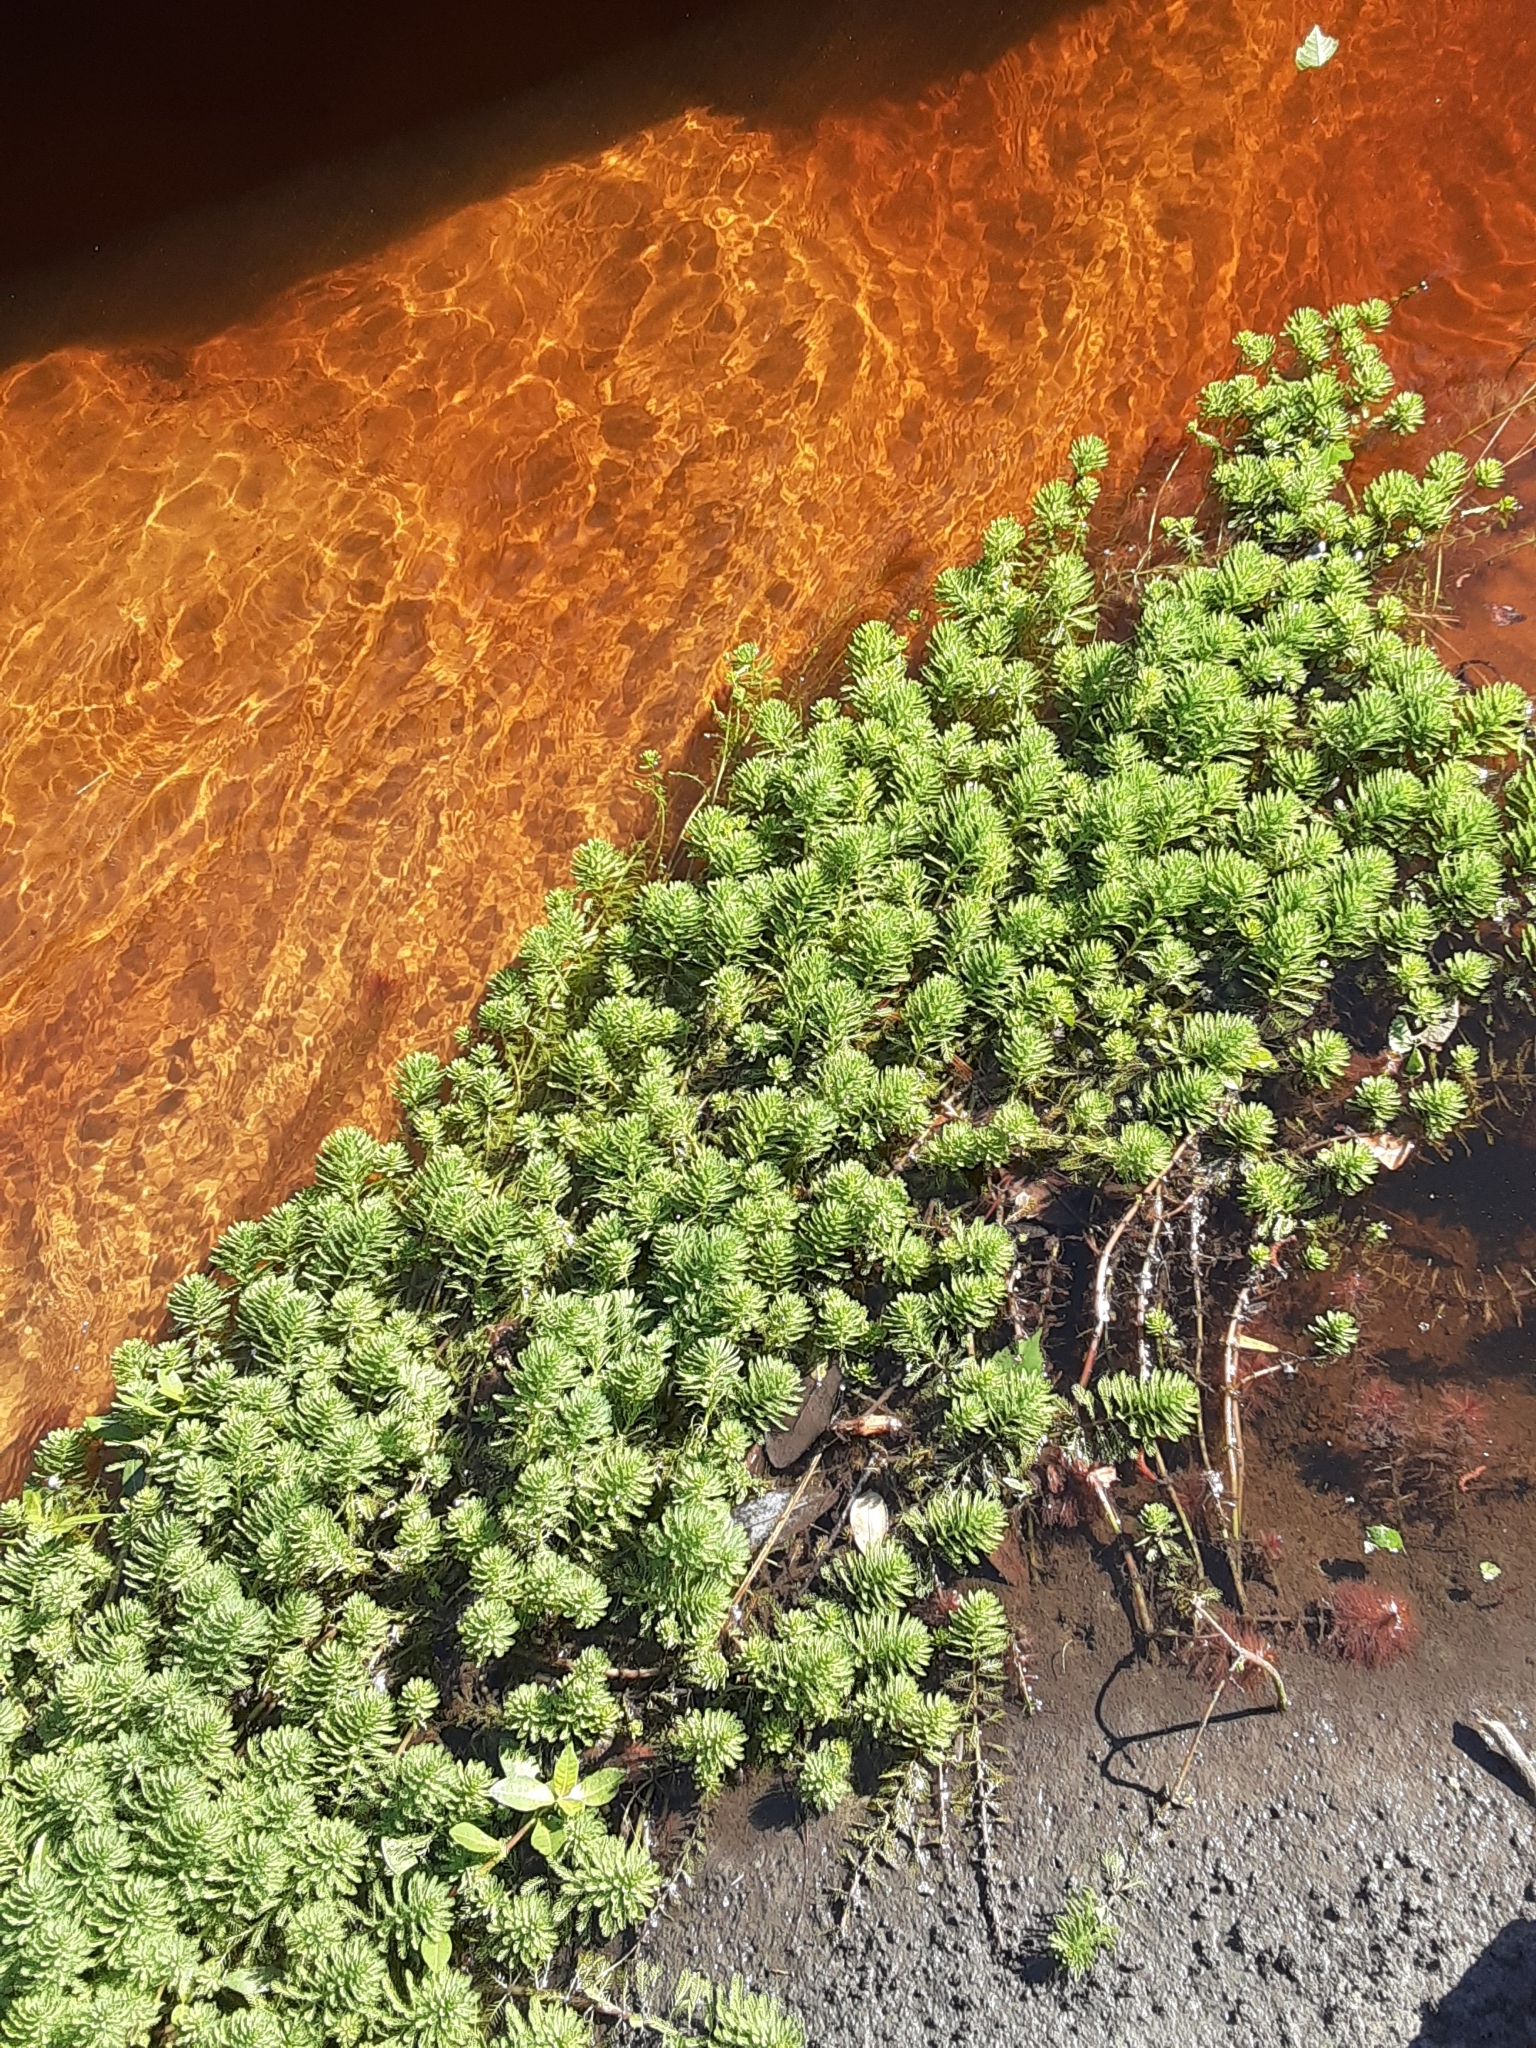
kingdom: Plantae
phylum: Tracheophyta
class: Magnoliopsida
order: Saxifragales
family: Haloragaceae
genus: Myriophyllum
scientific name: Myriophyllum aquaticum
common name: Parrot's feather
